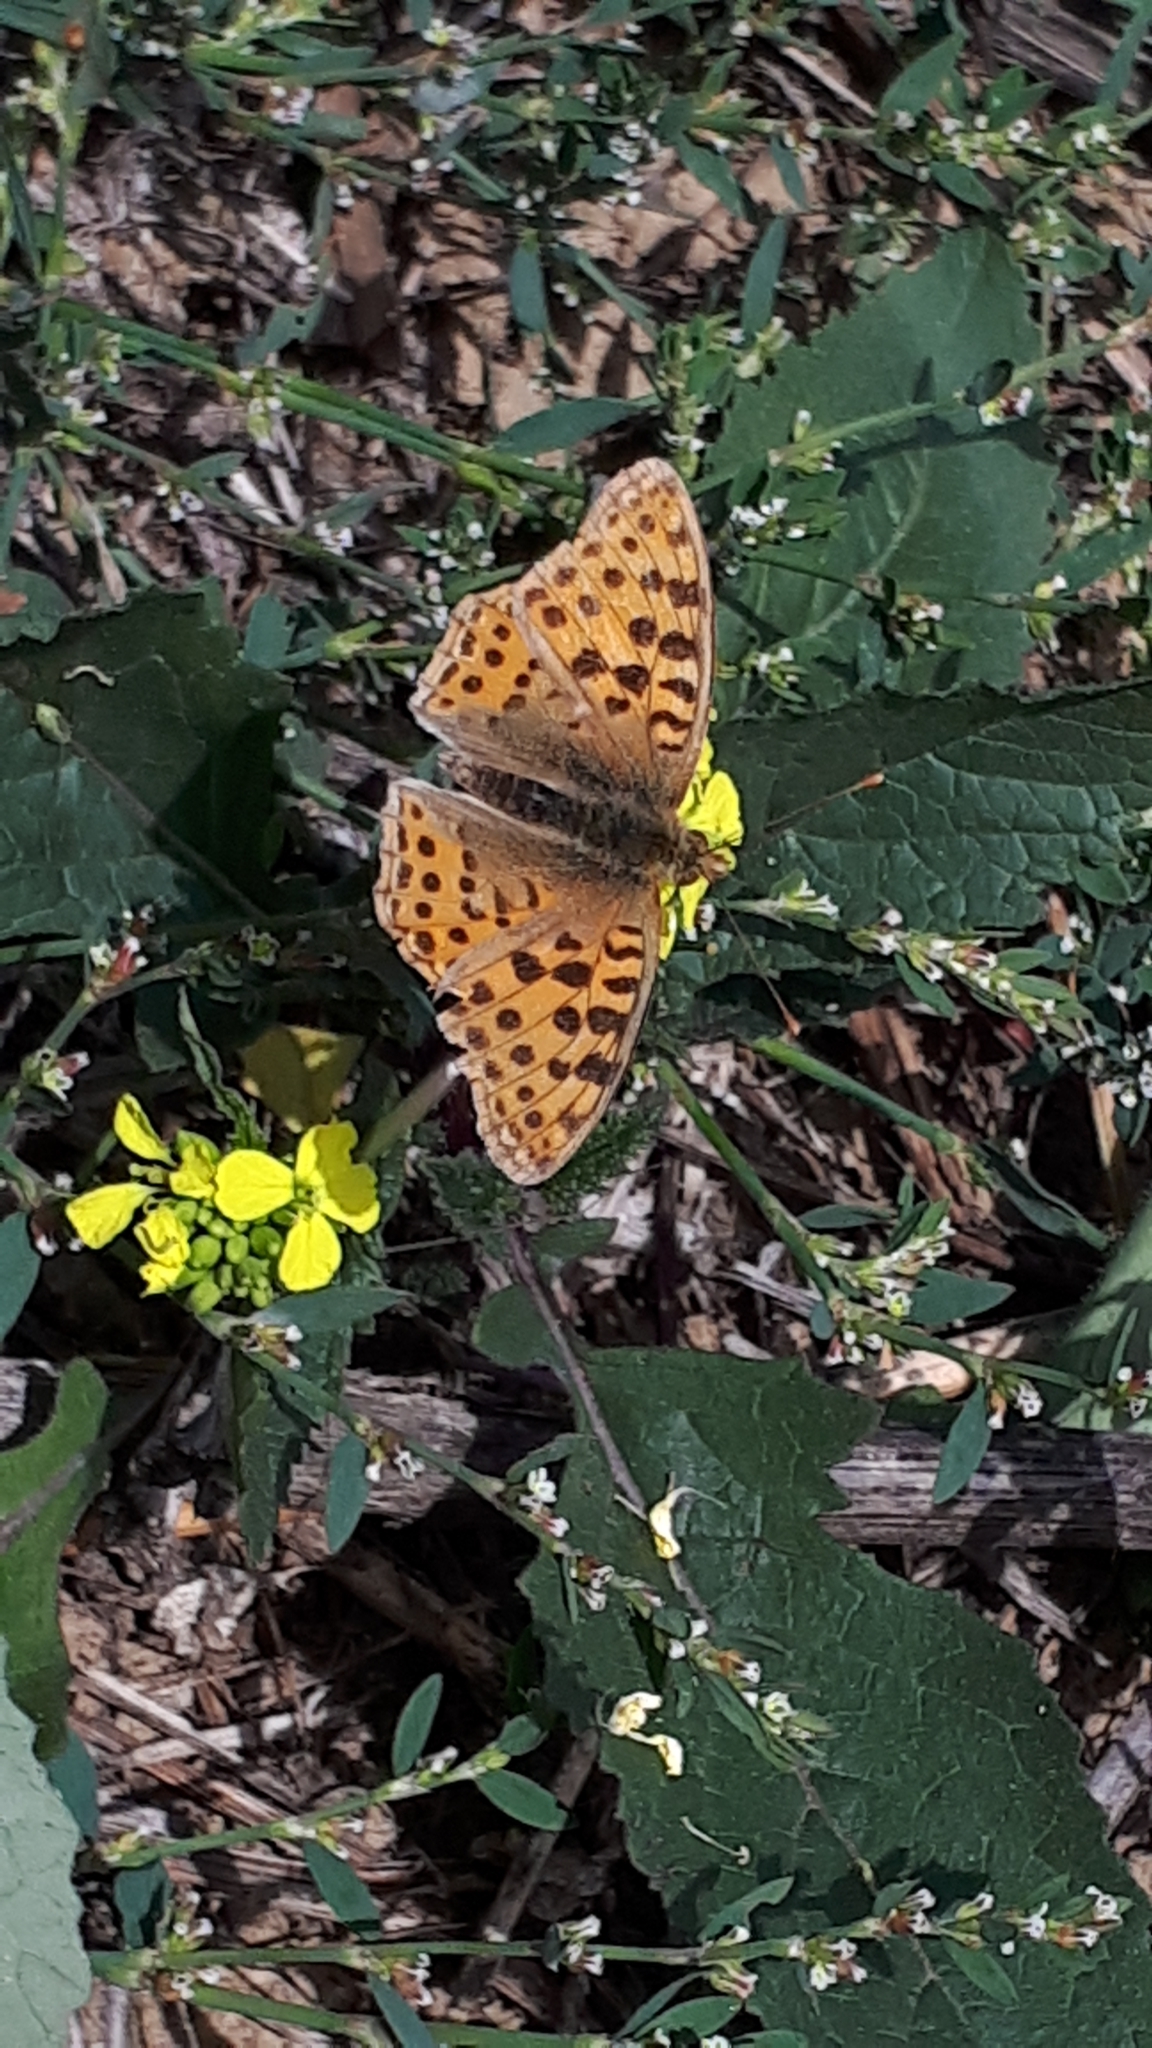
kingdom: Animalia
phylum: Arthropoda
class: Insecta
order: Lepidoptera
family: Nymphalidae
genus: Issoria
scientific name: Issoria lathonia
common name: Queen of spain fritillary
